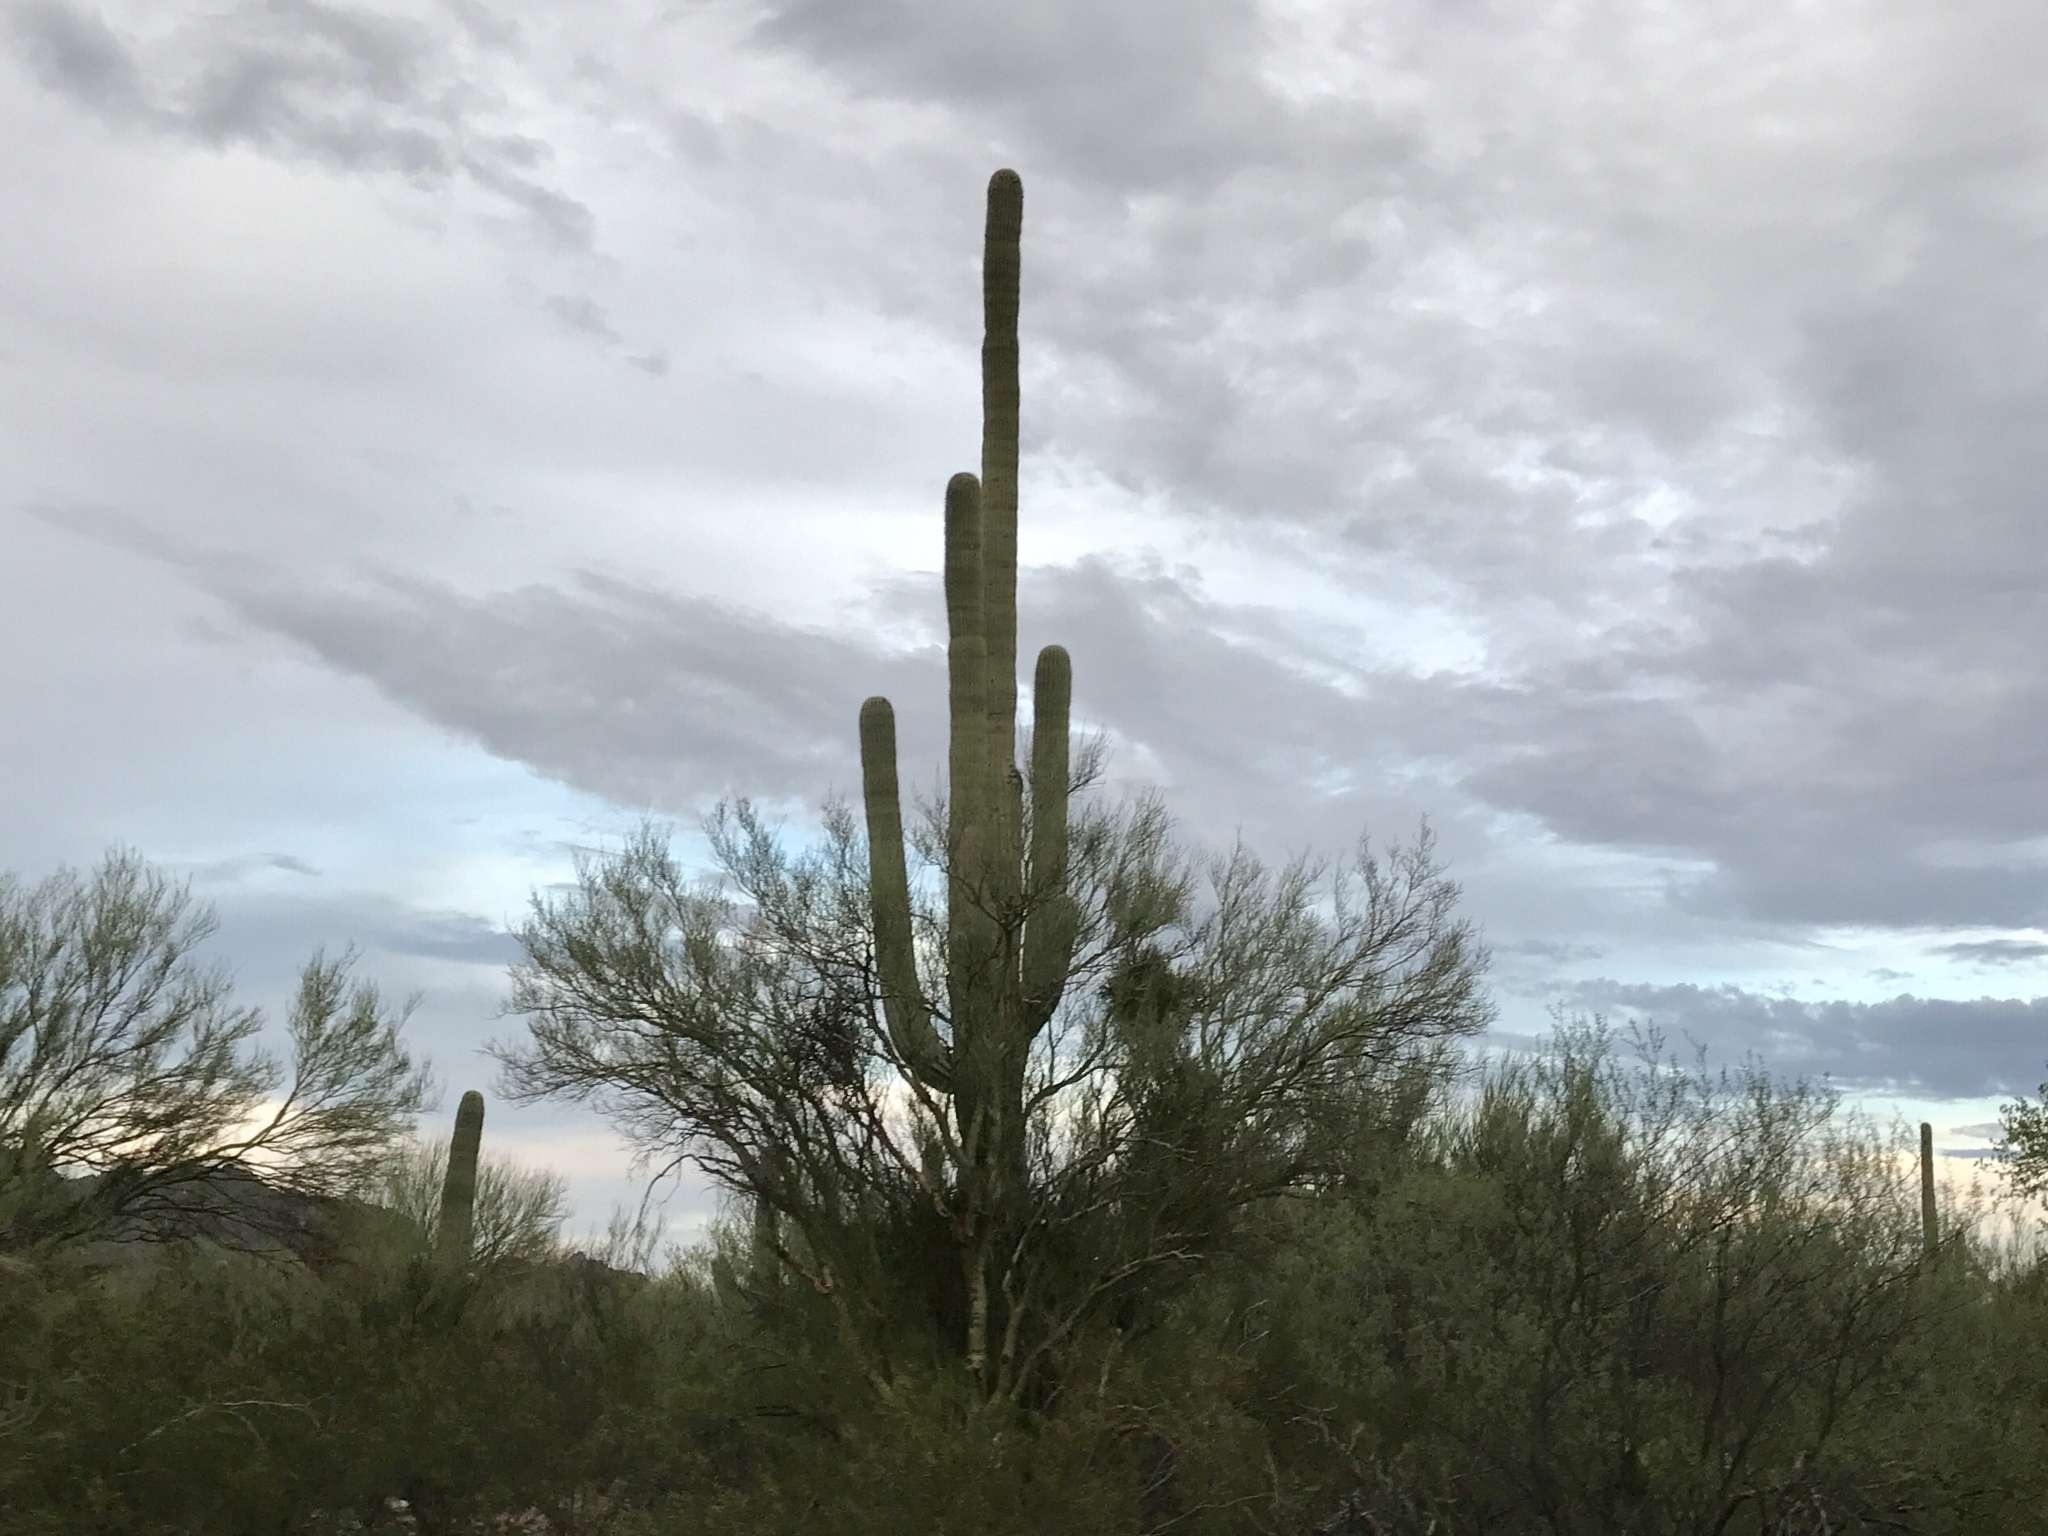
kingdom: Plantae
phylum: Tracheophyta
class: Magnoliopsida
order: Caryophyllales
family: Cactaceae
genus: Carnegiea
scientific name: Carnegiea gigantea
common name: Saguaro
